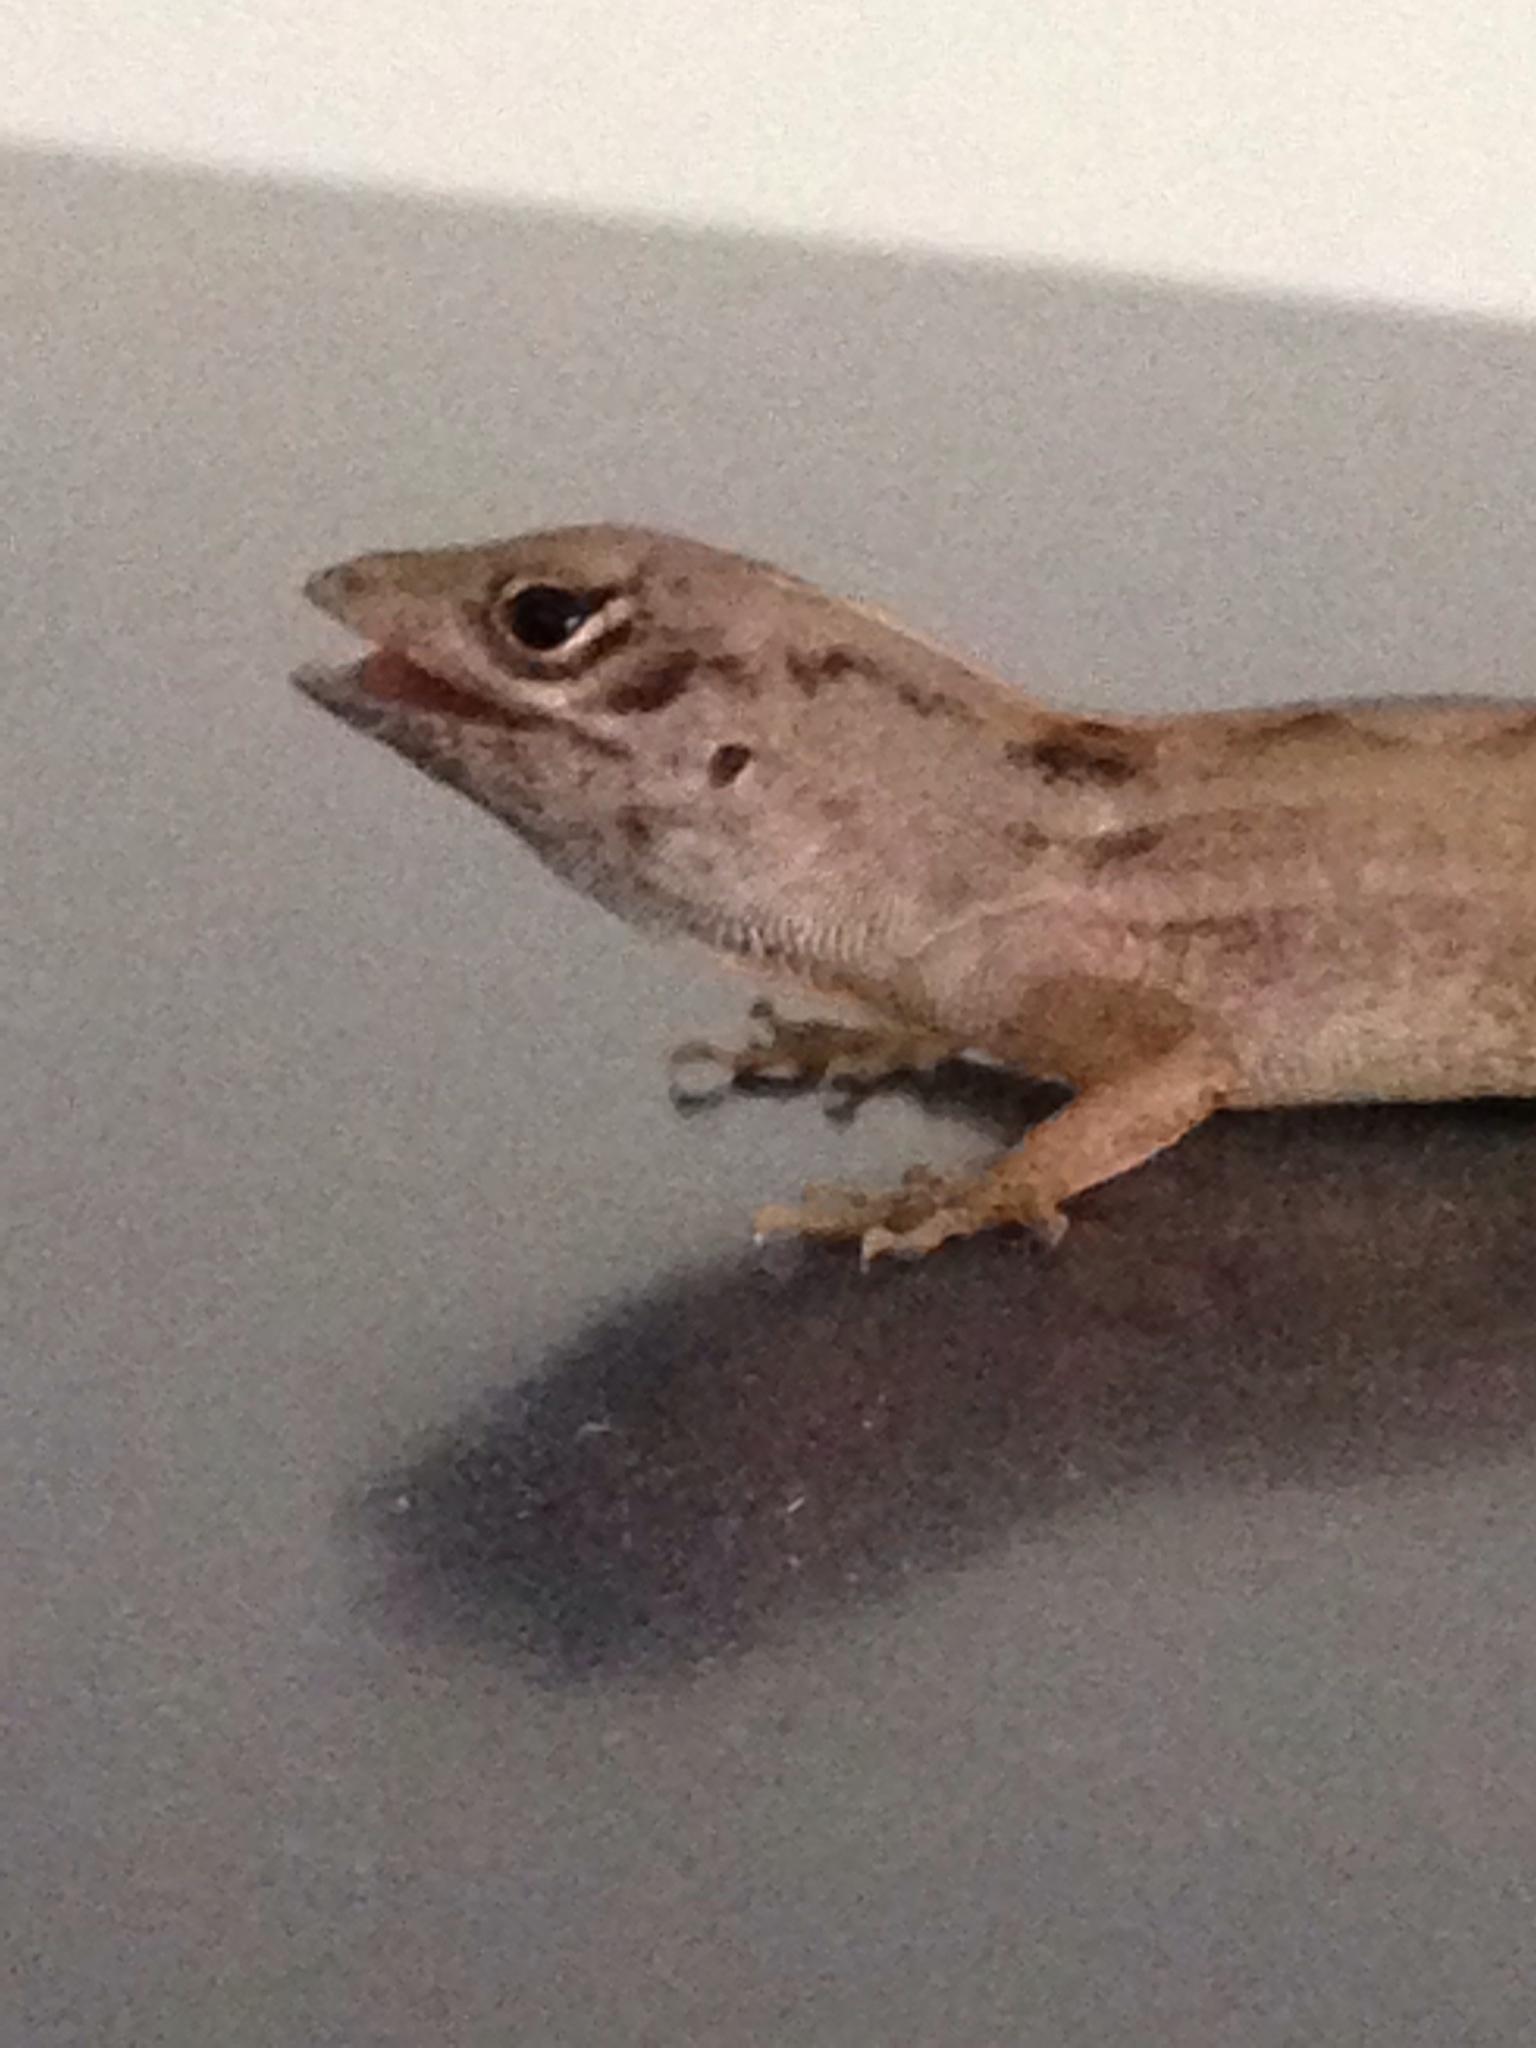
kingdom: Animalia
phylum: Chordata
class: Squamata
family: Dactyloidae
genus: Anolis
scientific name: Anolis sagrei
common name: Brown anole
